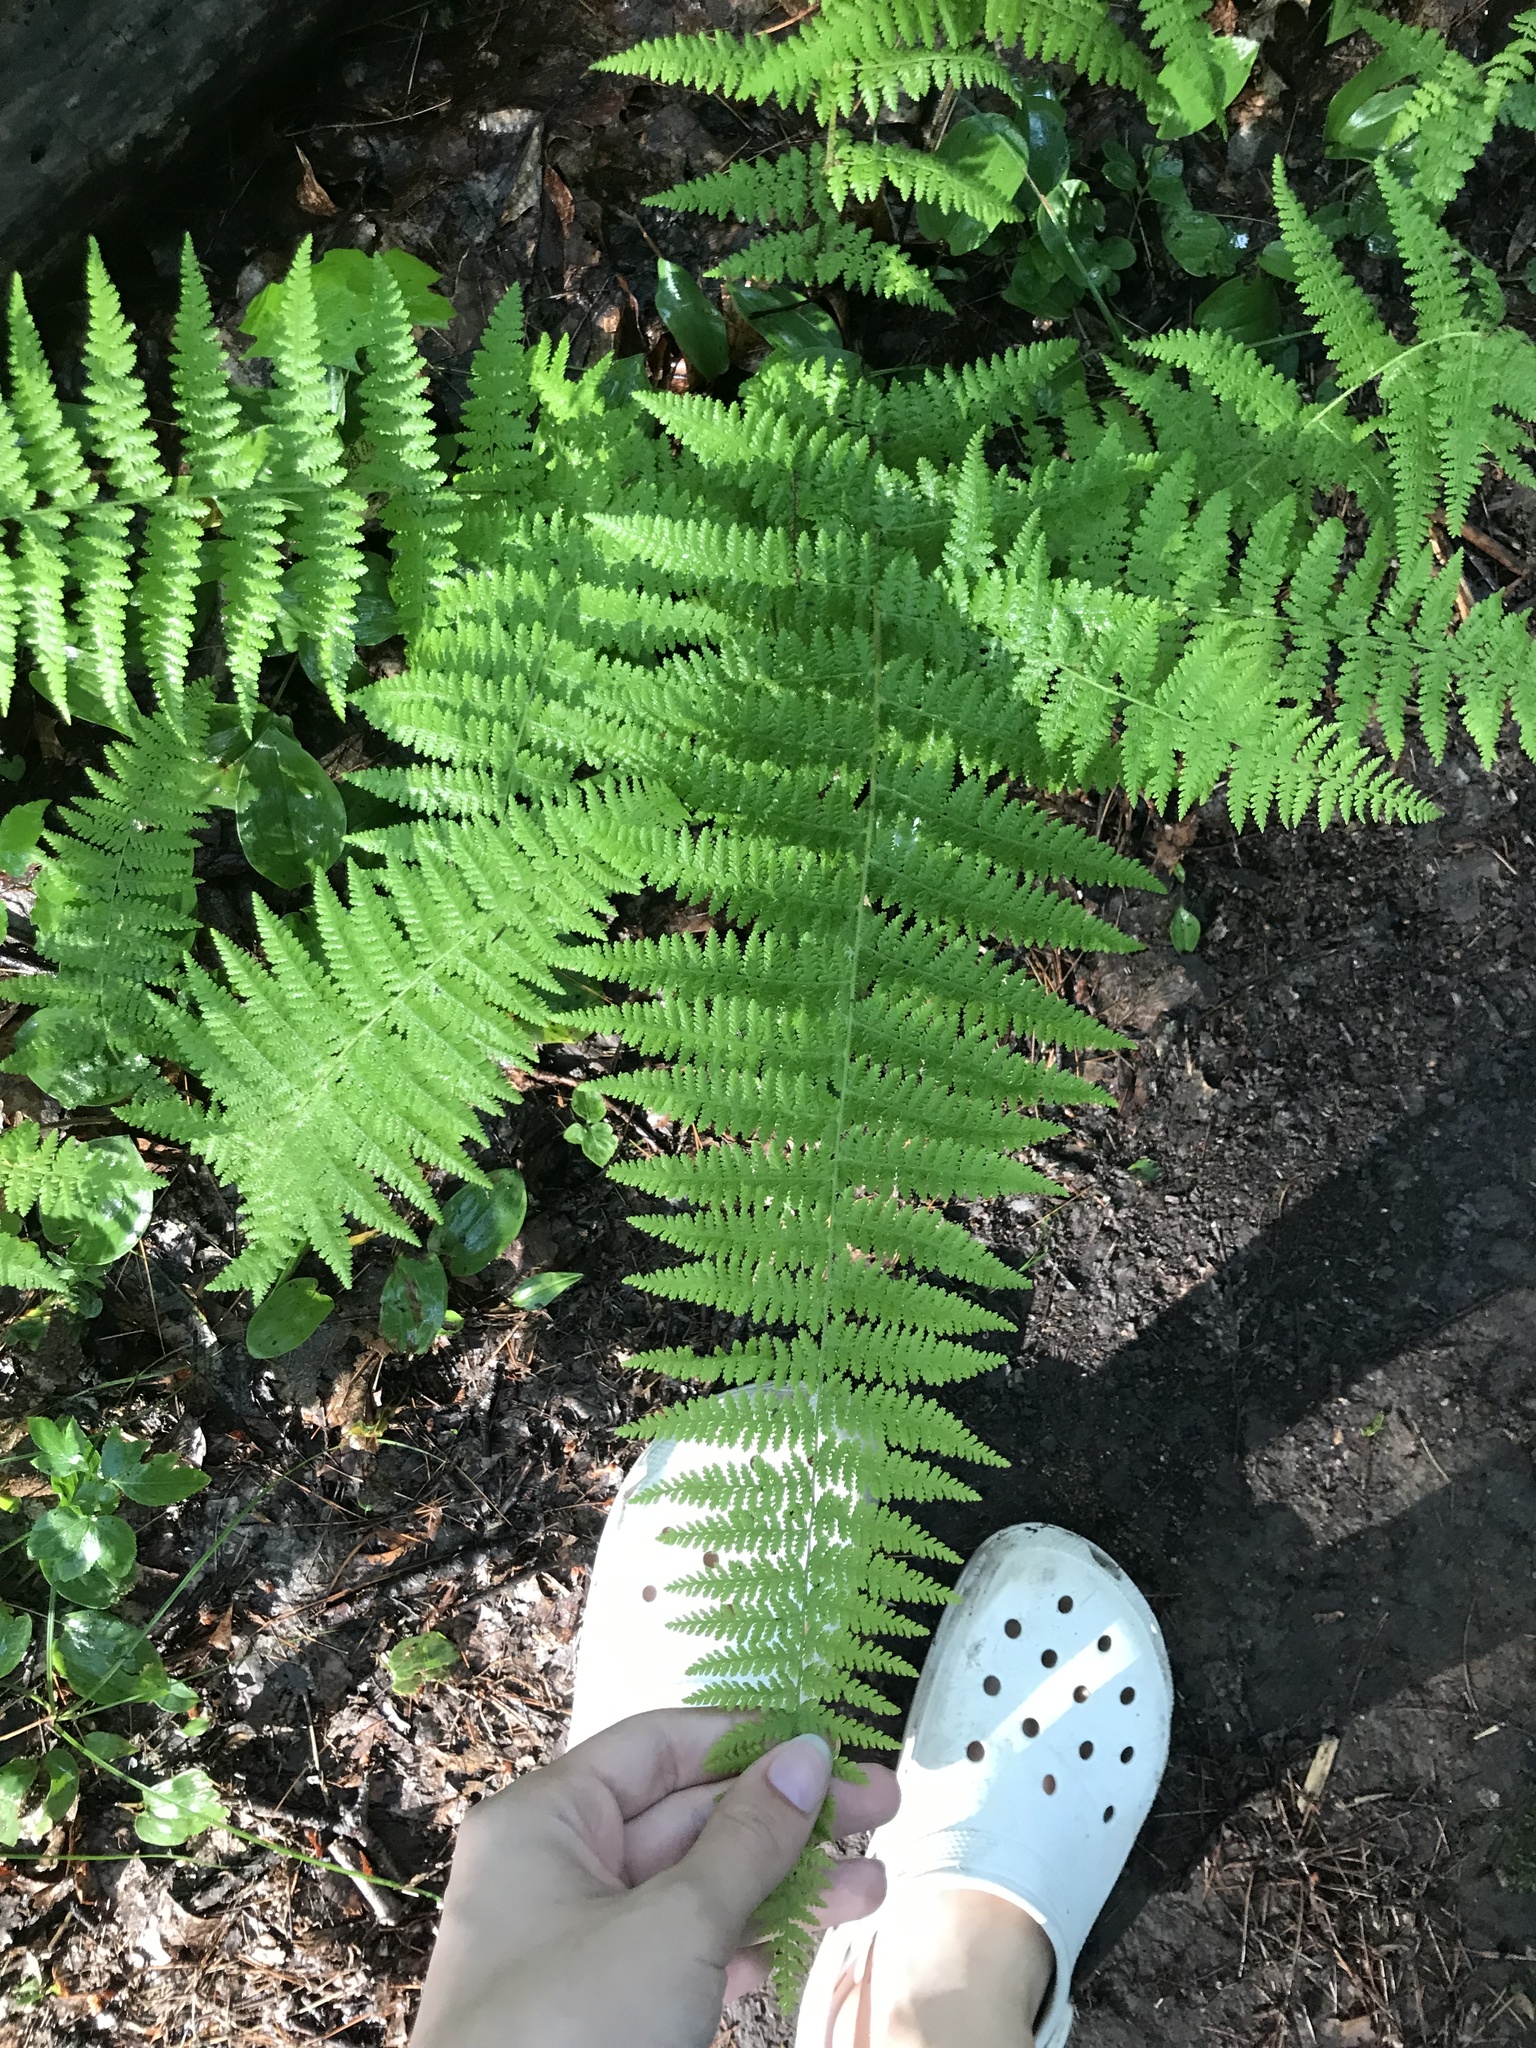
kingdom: Plantae
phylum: Tracheophyta
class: Polypodiopsida
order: Polypodiales
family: Dennstaedtiaceae
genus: Sitobolium
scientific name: Sitobolium punctilobum
